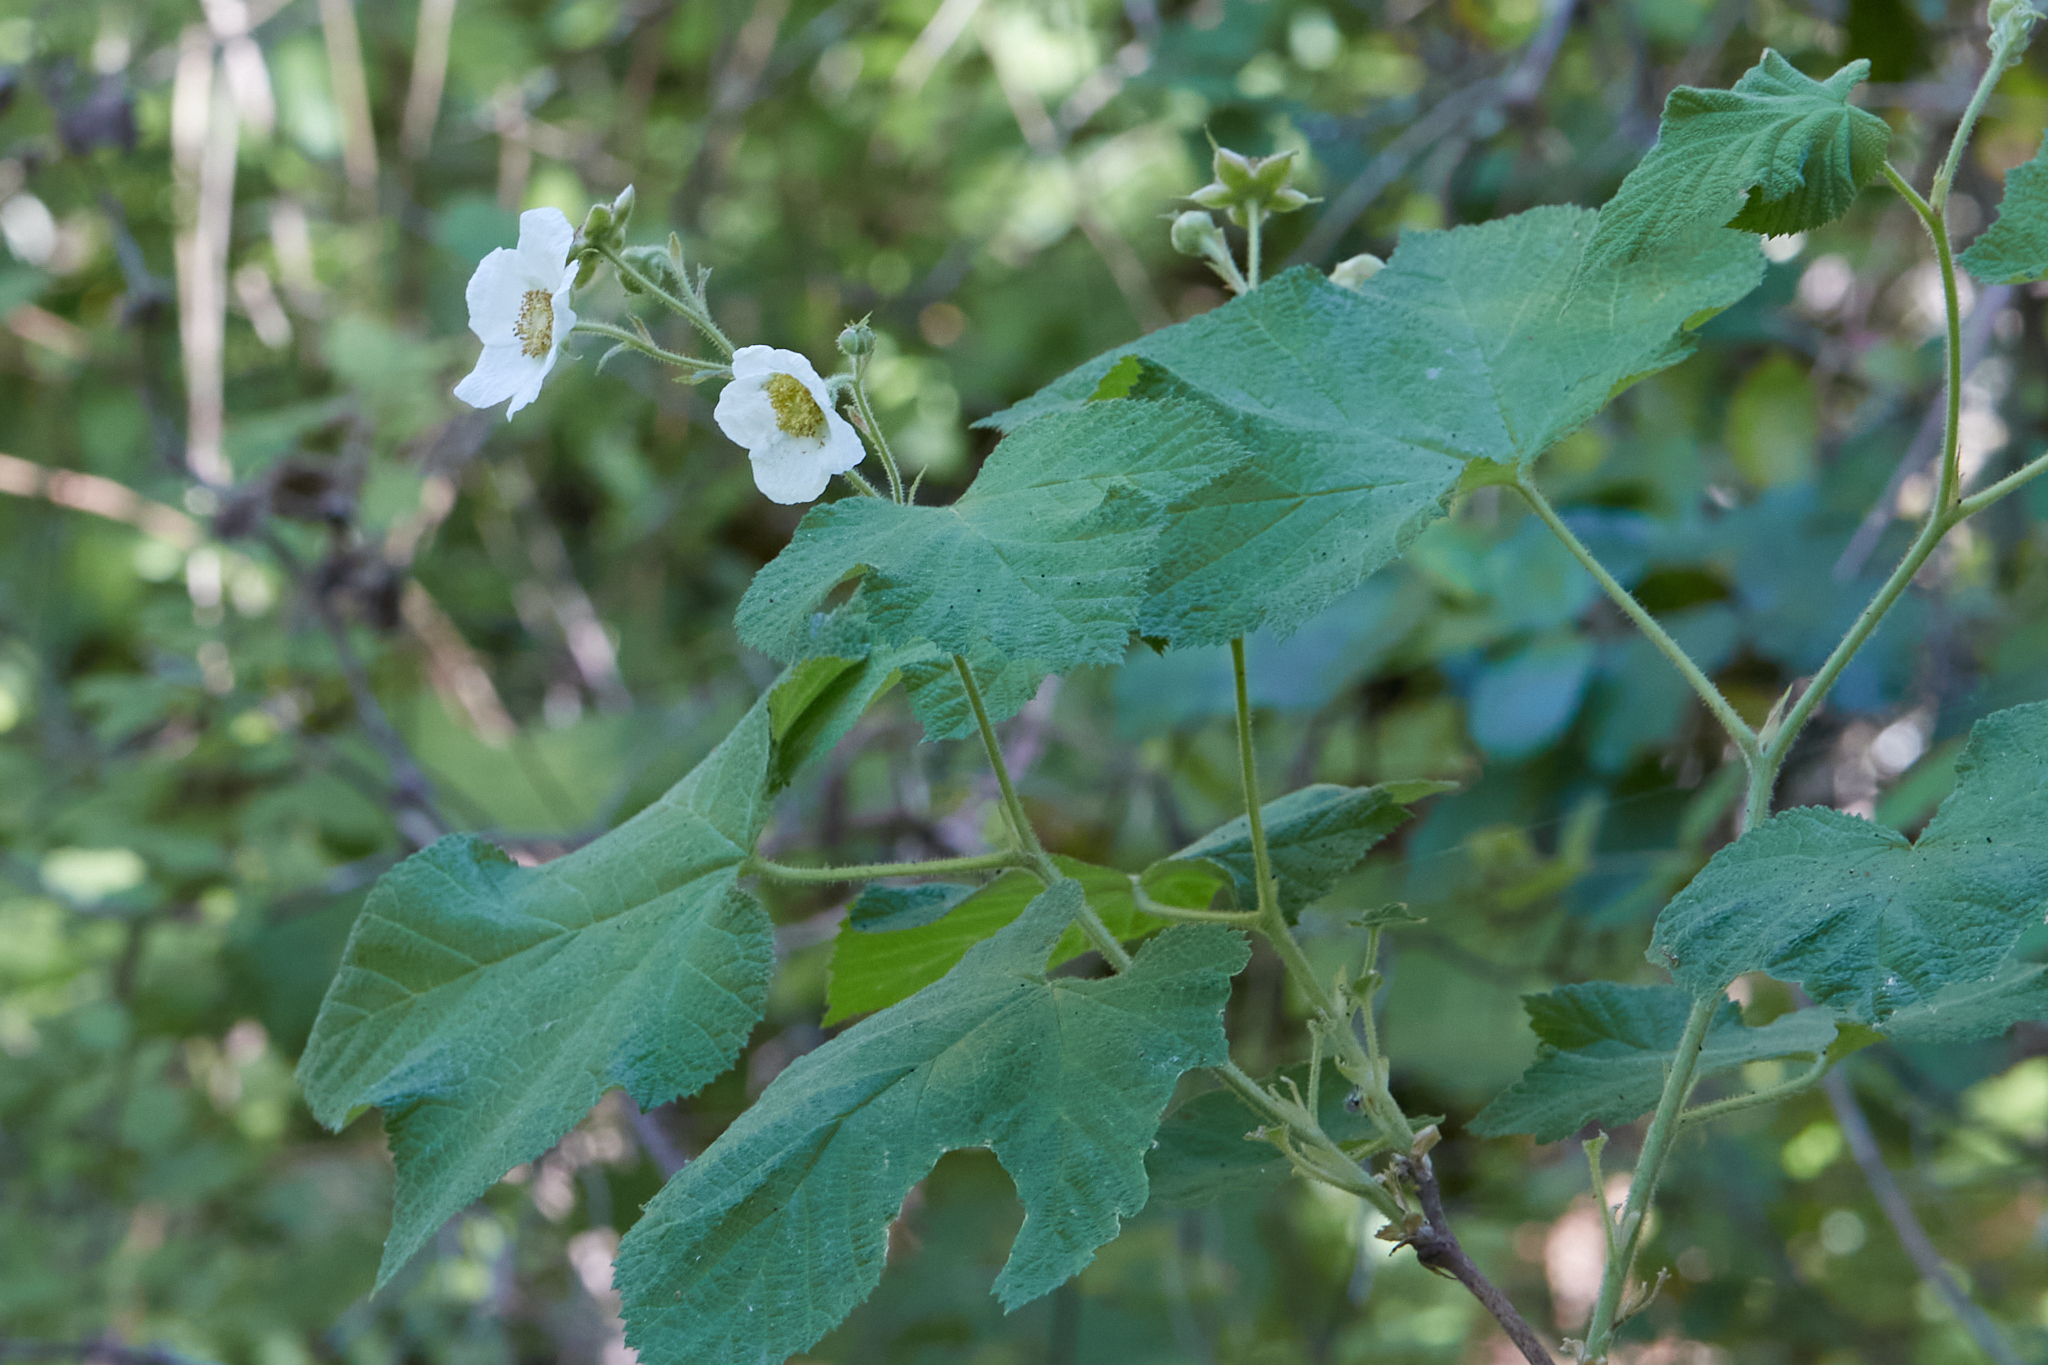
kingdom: Plantae
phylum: Tracheophyta
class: Magnoliopsida
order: Rosales
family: Rosaceae
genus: Rubus
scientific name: Rubus parviflorus
